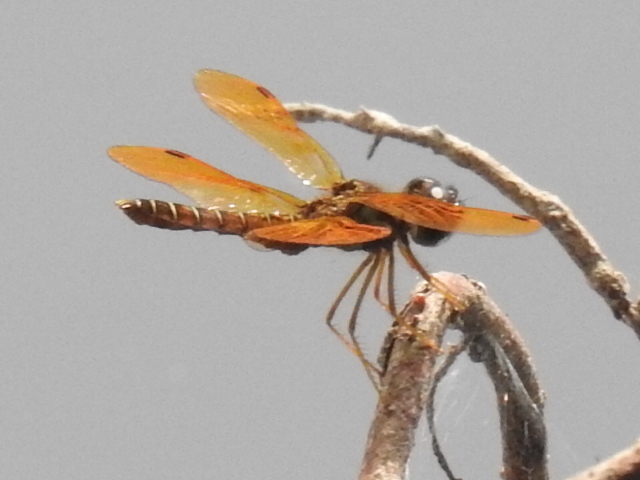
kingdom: Animalia
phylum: Arthropoda
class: Insecta
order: Odonata
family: Libellulidae
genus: Perithemis
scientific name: Perithemis tenera
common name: Eastern amberwing
